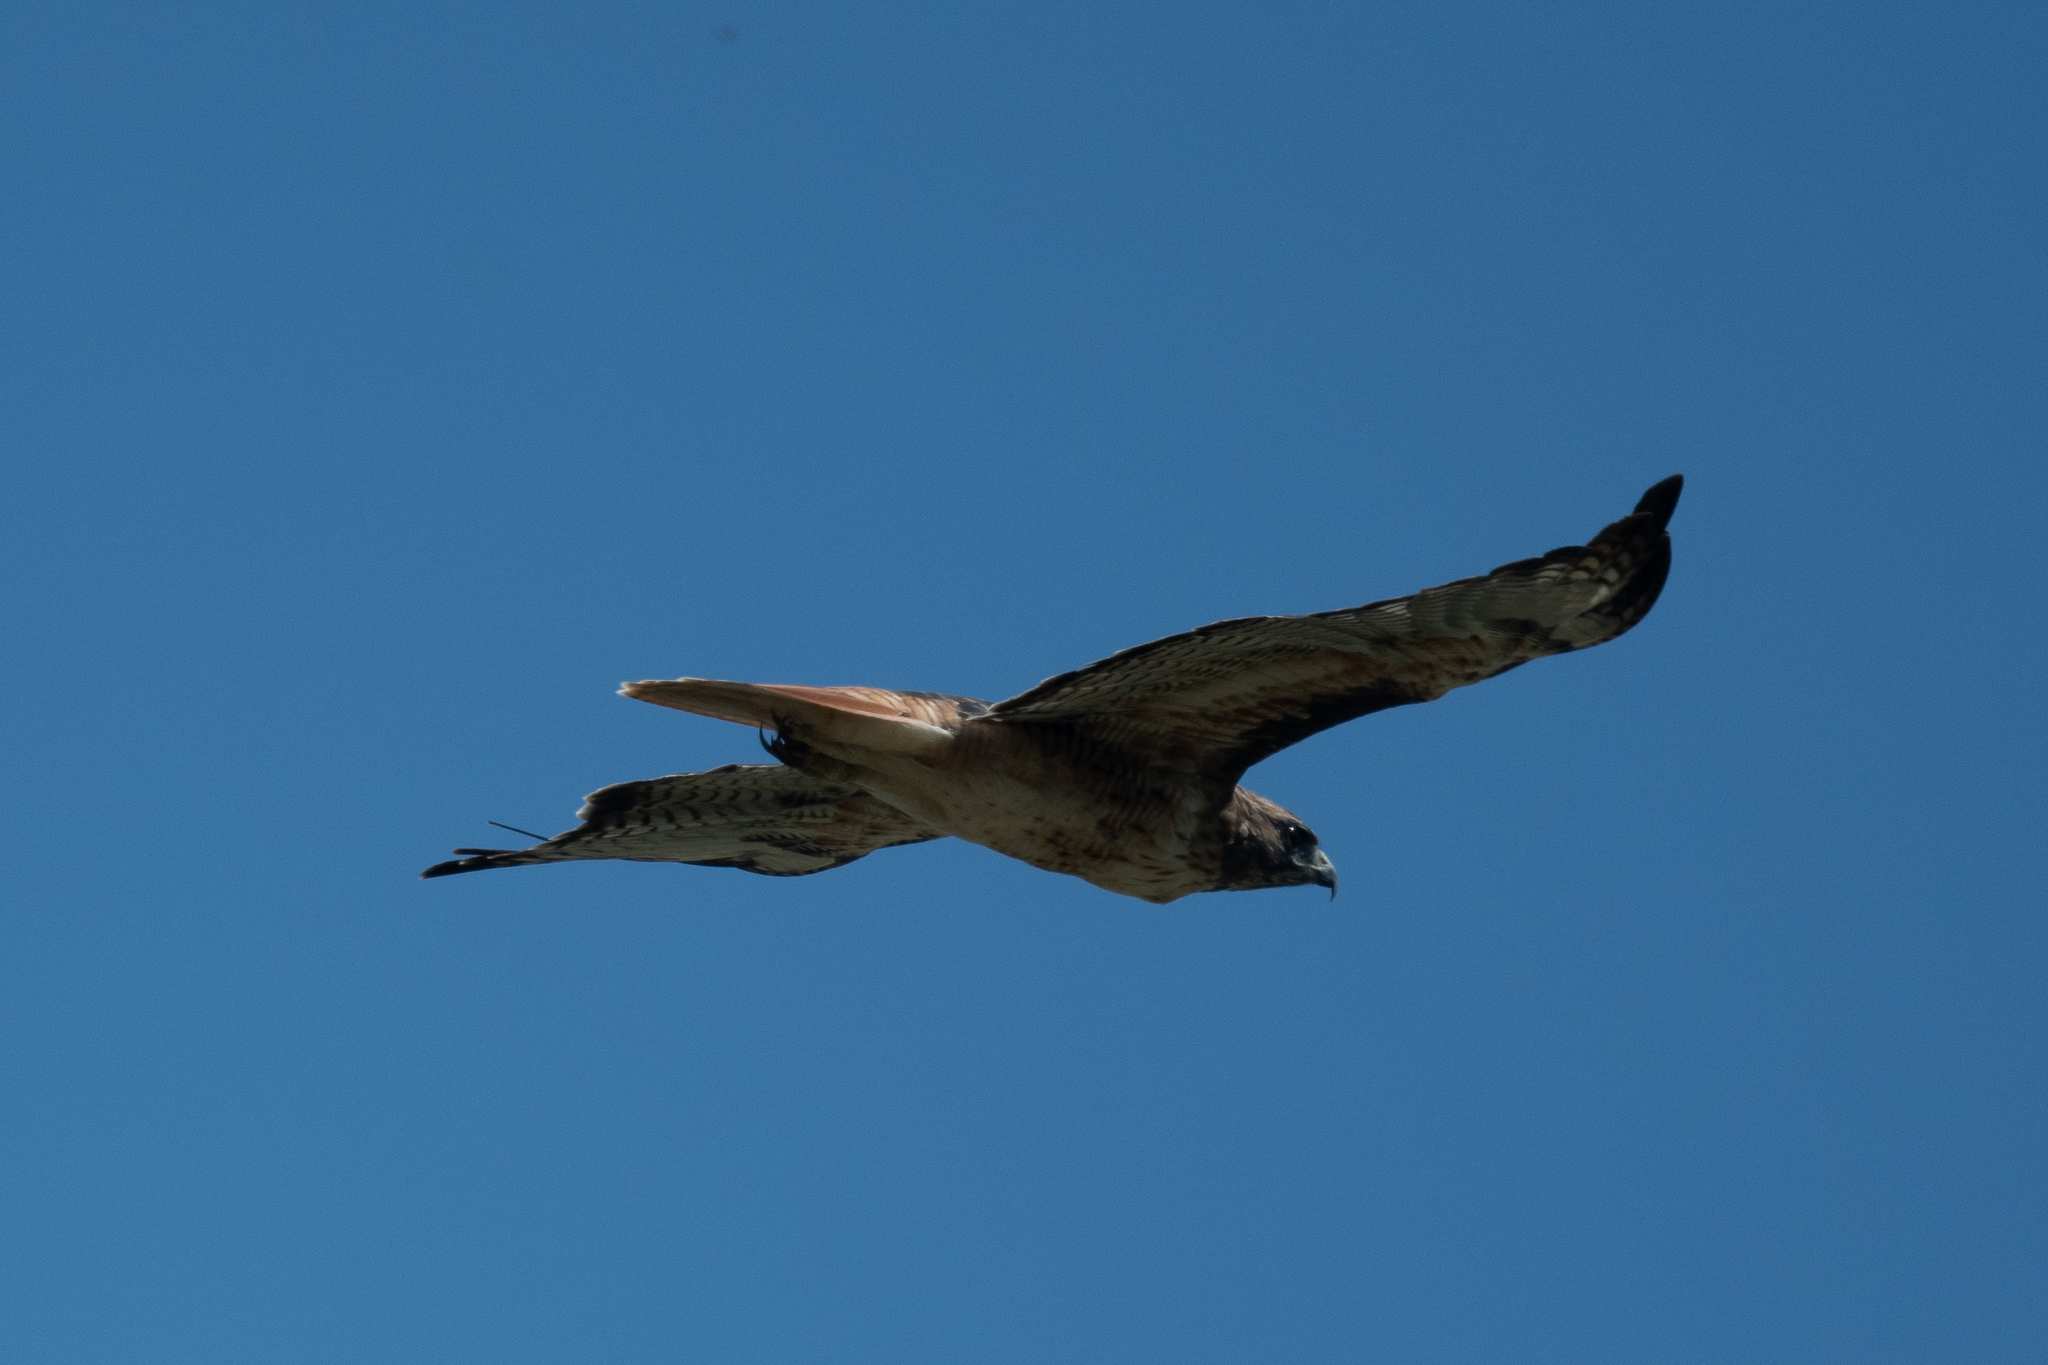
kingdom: Animalia
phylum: Chordata
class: Aves
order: Accipitriformes
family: Accipitridae
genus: Buteo
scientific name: Buteo jamaicensis
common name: Red-tailed hawk
